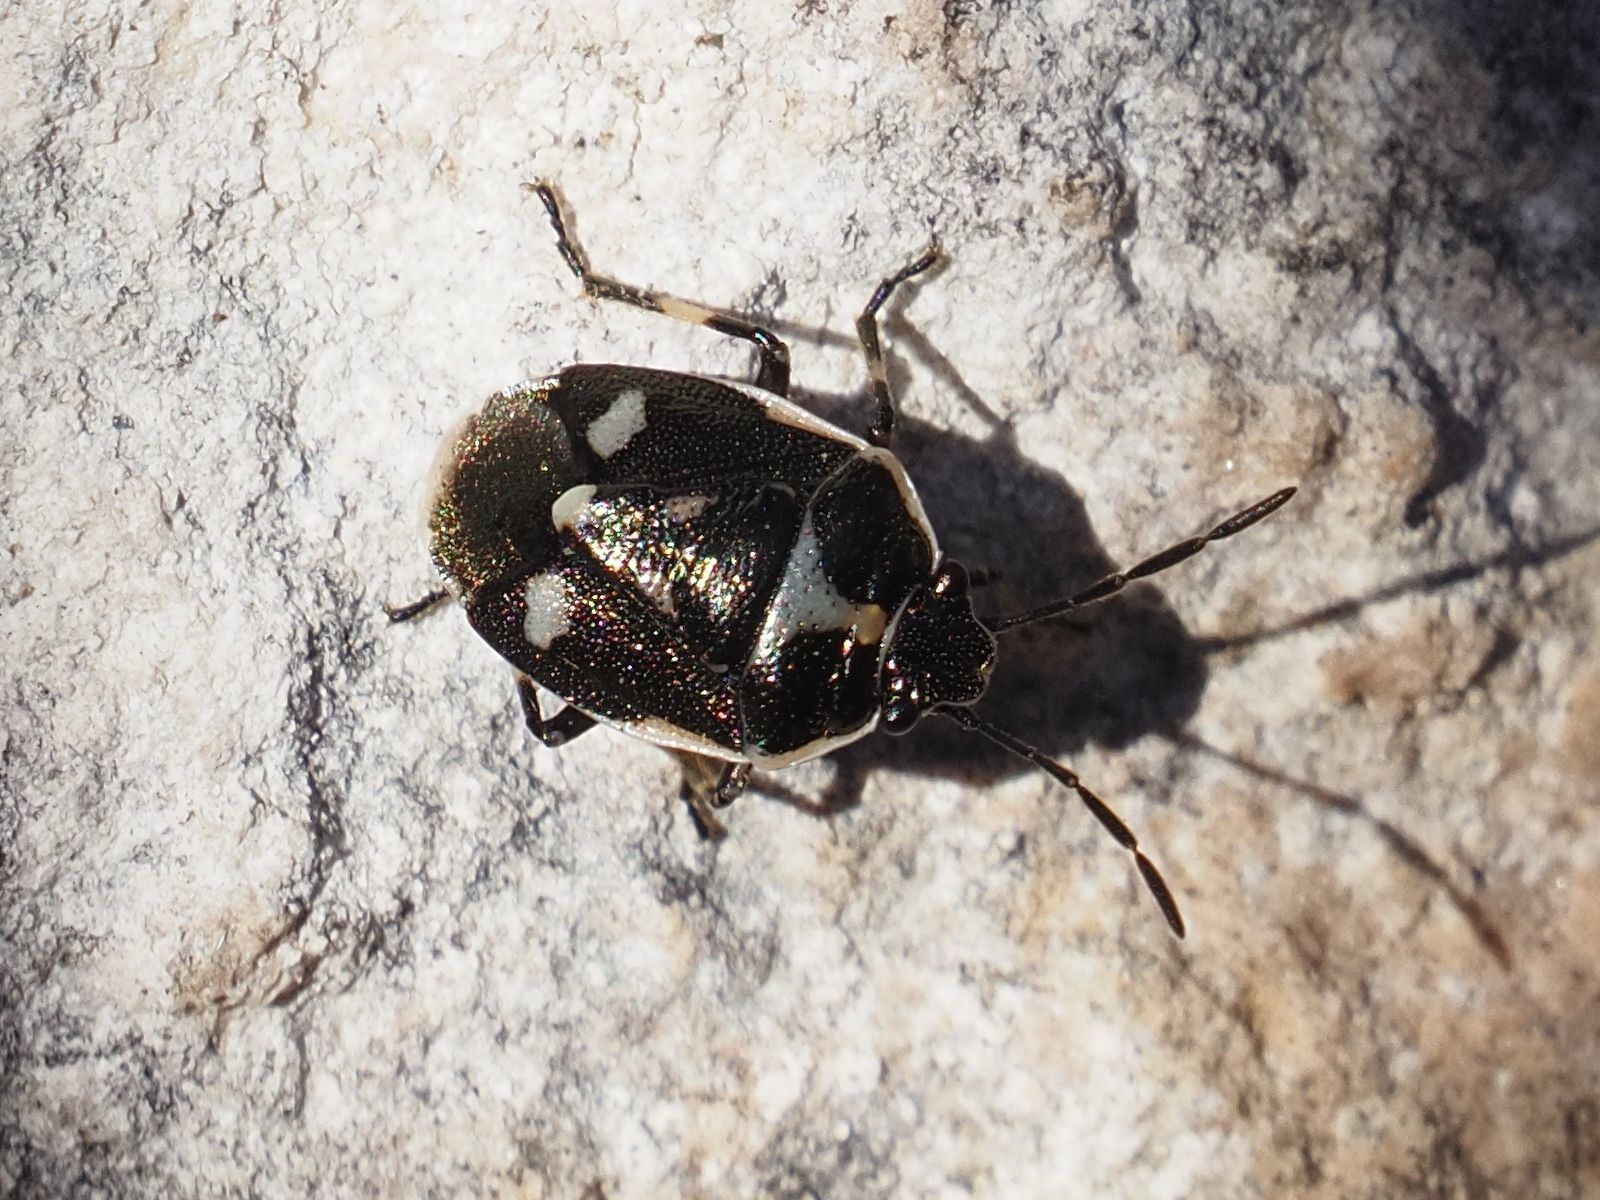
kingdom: Animalia
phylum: Arthropoda
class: Insecta
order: Hemiptera
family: Pentatomidae
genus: Eurydema
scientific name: Eurydema oleracea
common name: Cabbage bug
